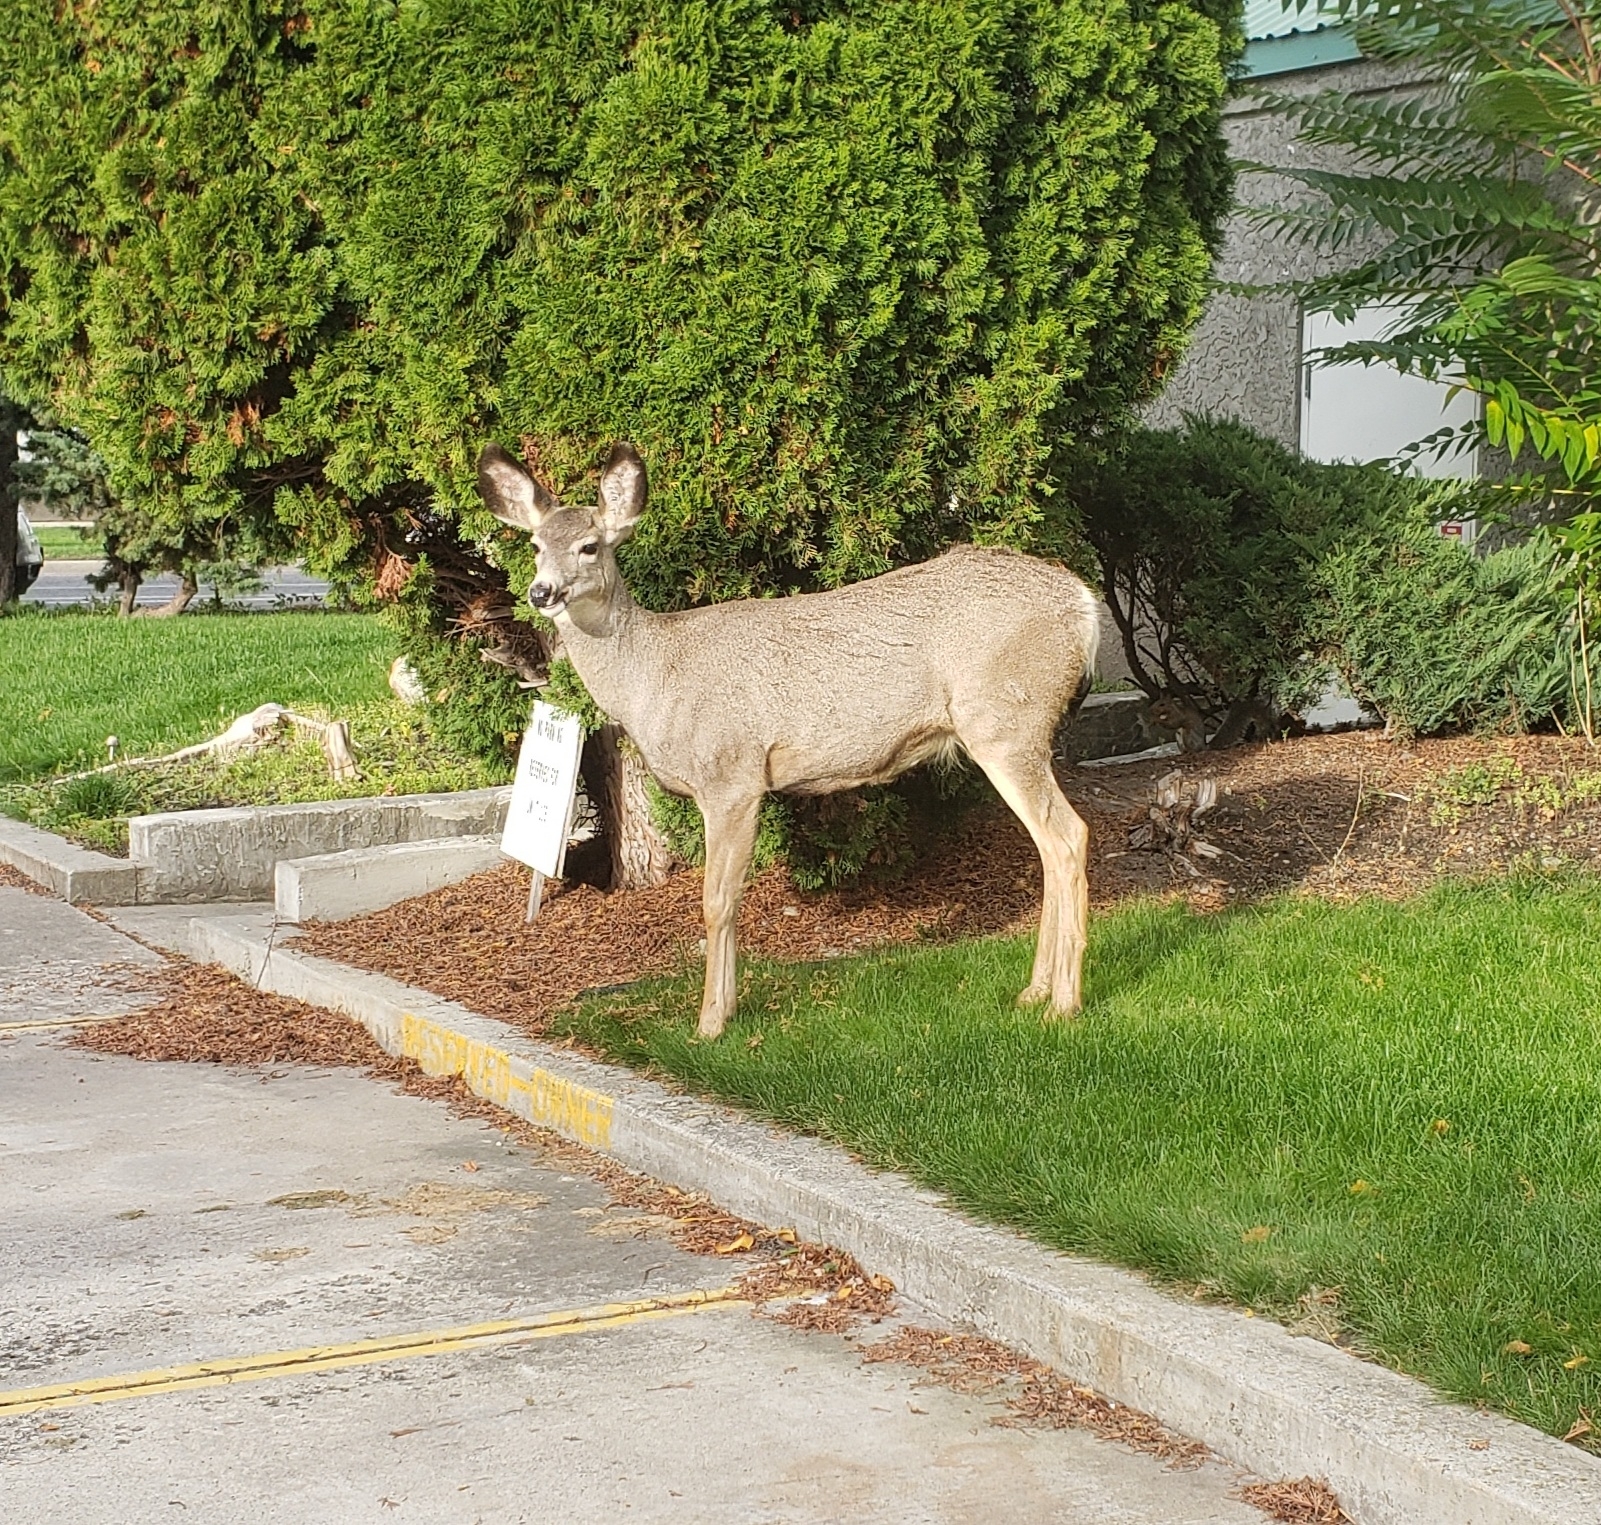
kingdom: Animalia
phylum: Chordata
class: Mammalia
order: Artiodactyla
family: Cervidae
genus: Odocoileus
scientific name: Odocoileus hemionus
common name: Mule deer
